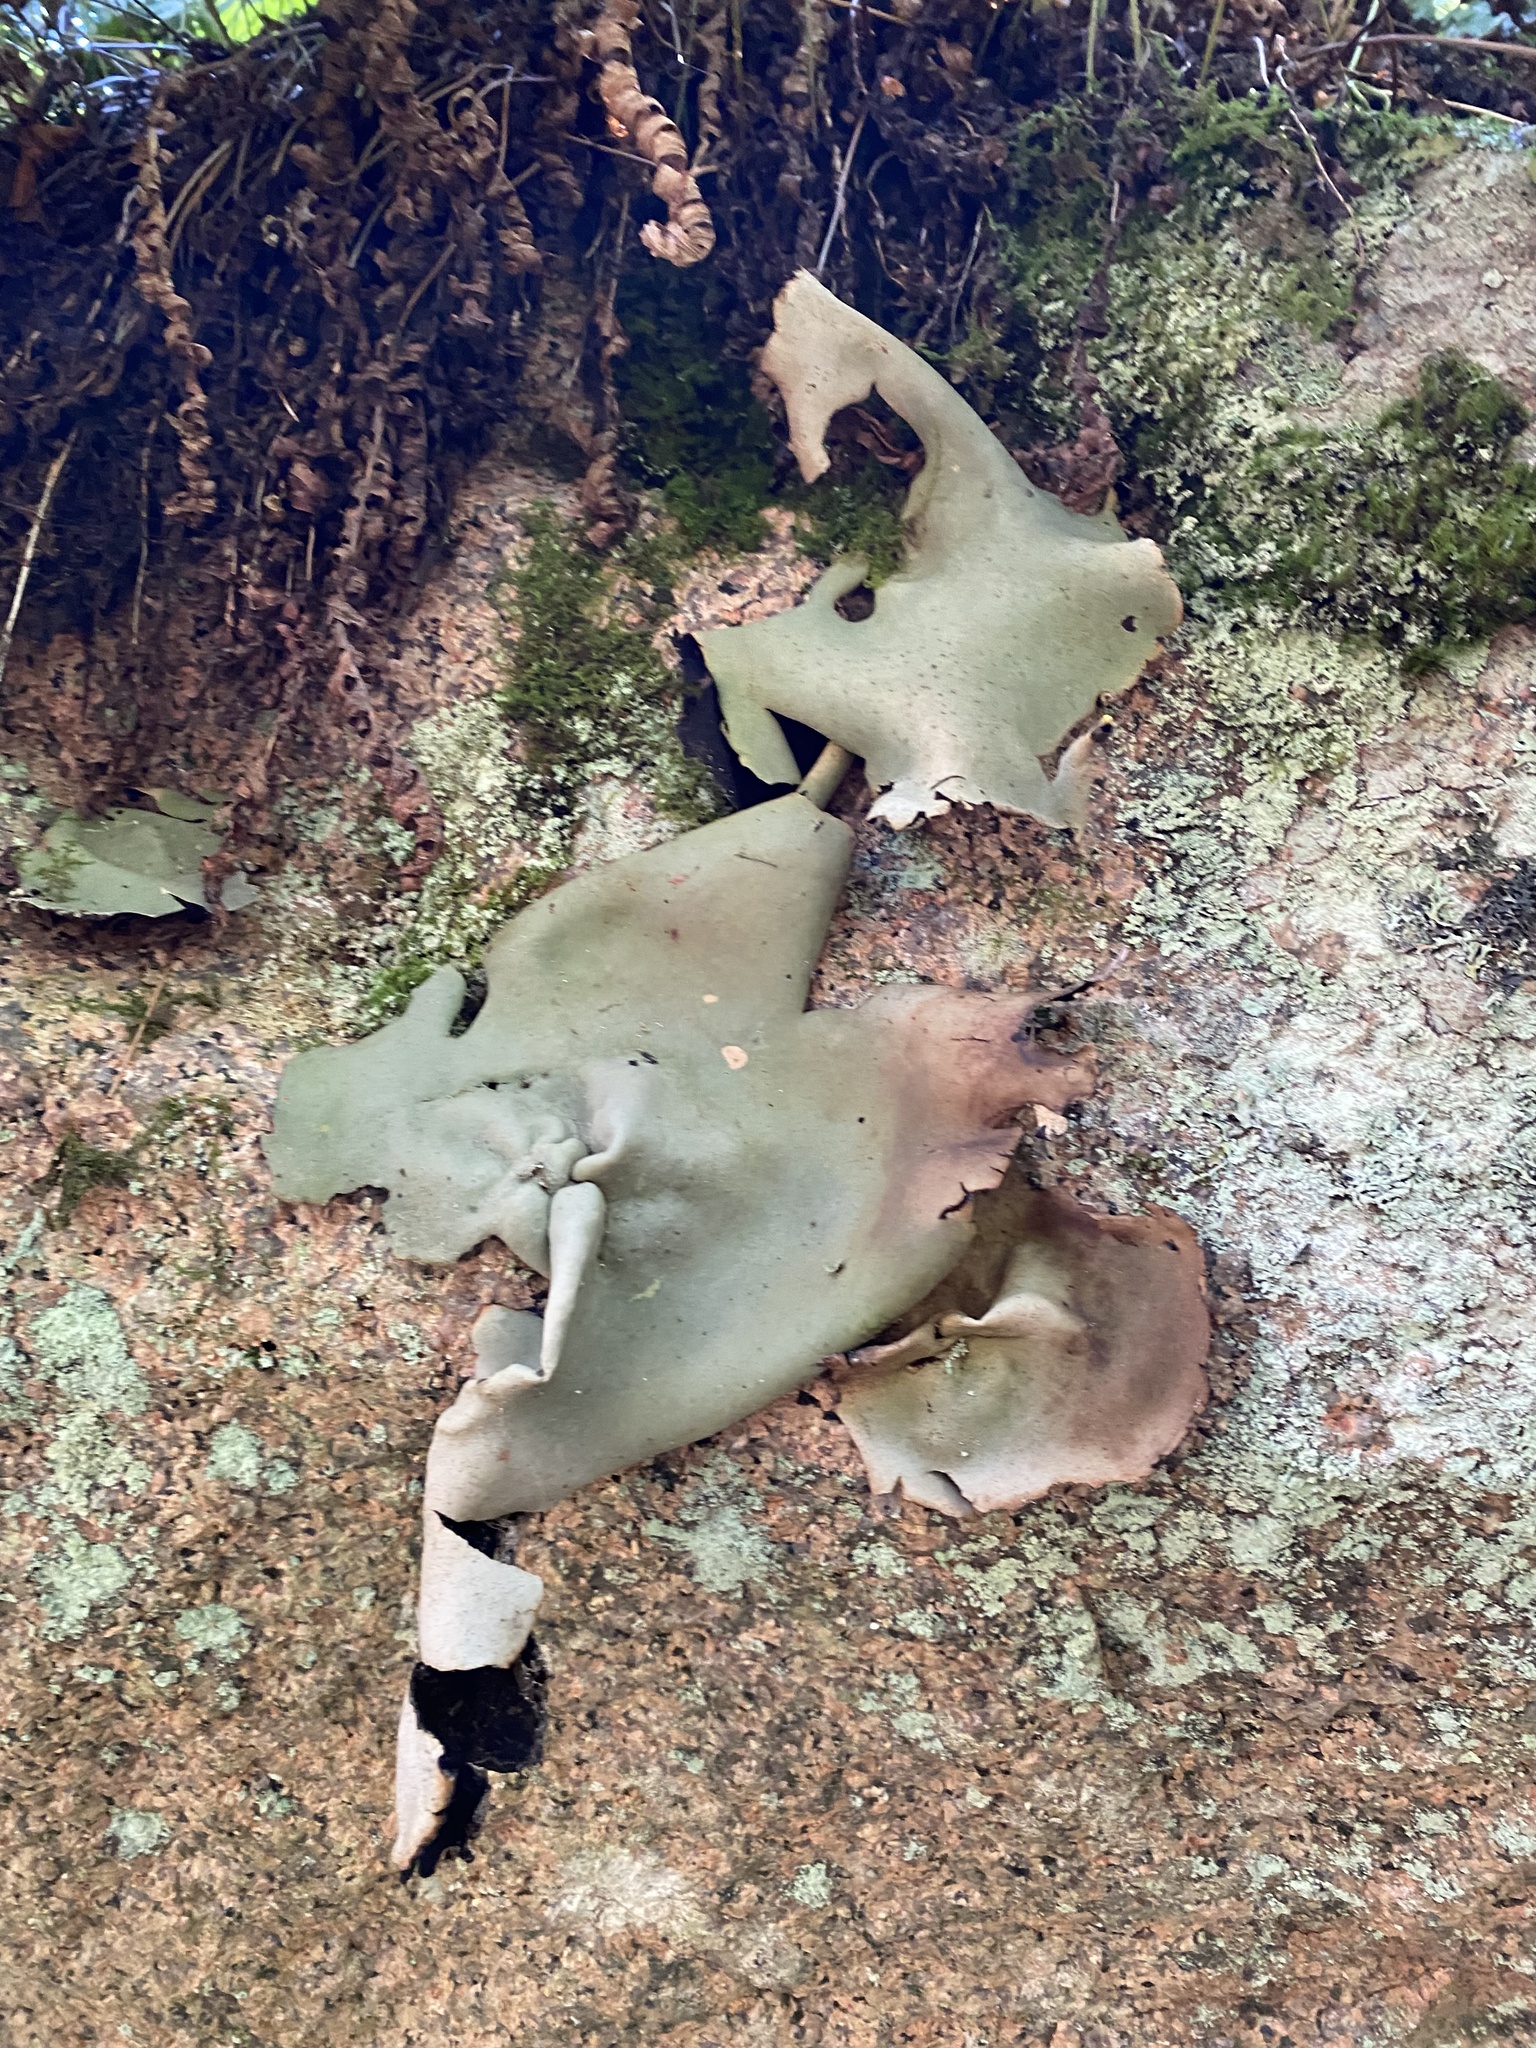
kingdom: Fungi
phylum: Ascomycota
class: Lecanoromycetes
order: Umbilicariales
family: Umbilicariaceae
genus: Umbilicaria
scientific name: Umbilicaria mammulata
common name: Smooth rock tripe
